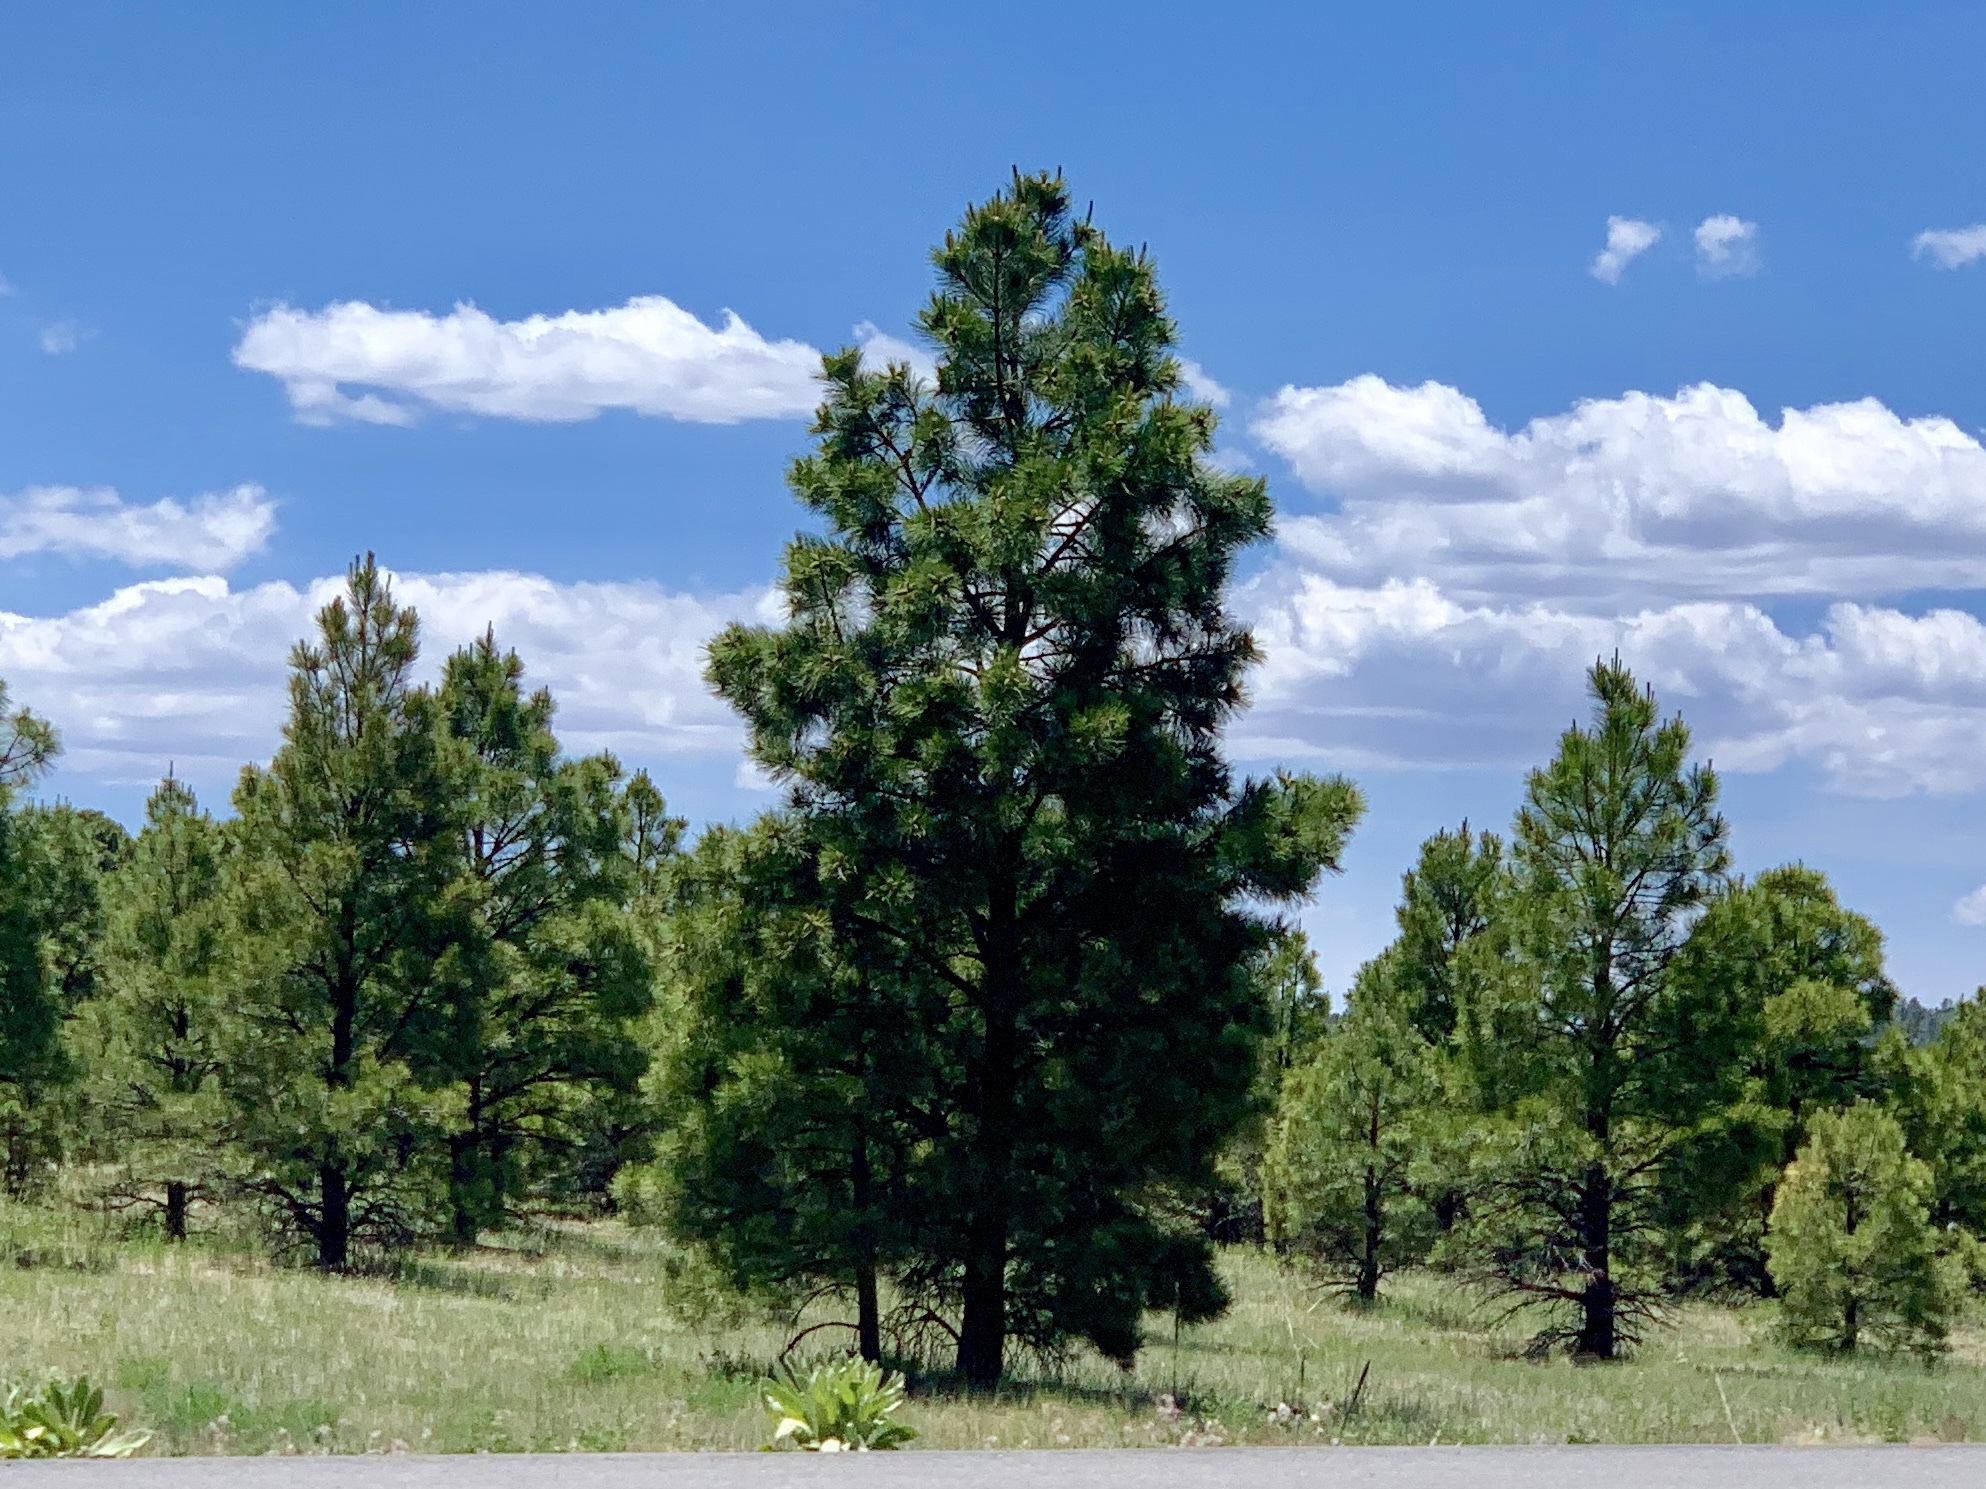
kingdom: Plantae
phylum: Tracheophyta
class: Pinopsida
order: Pinales
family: Pinaceae
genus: Pinus
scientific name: Pinus ponderosa
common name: Western yellow-pine
